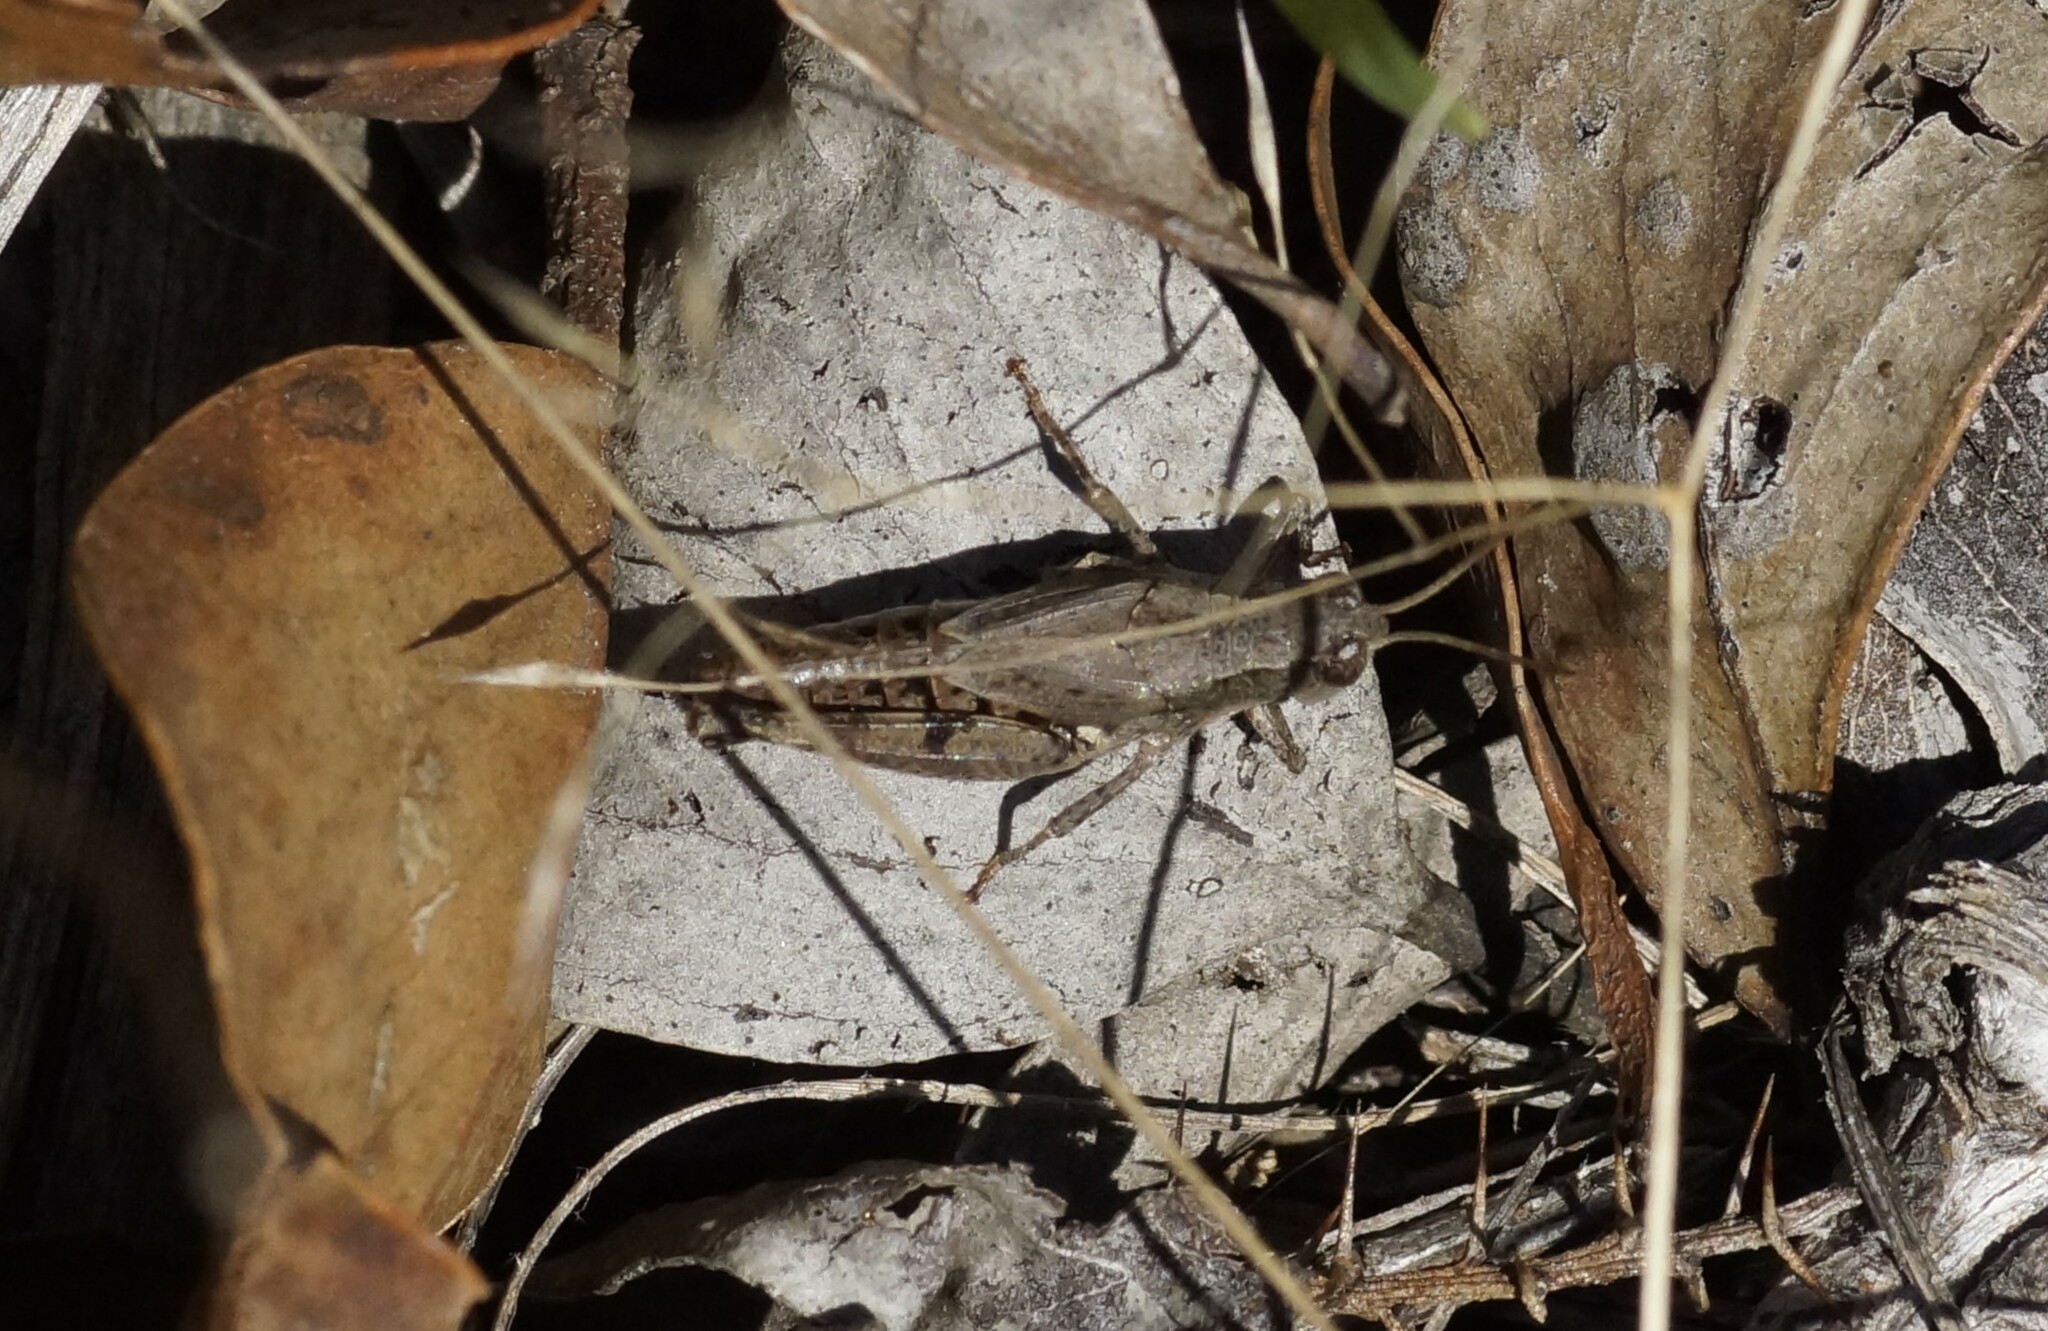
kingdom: Animalia
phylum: Arthropoda
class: Insecta
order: Orthoptera
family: Acrididae
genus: Phaulacridium
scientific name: Phaulacridium vittatum
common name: Wingless grasshopper
